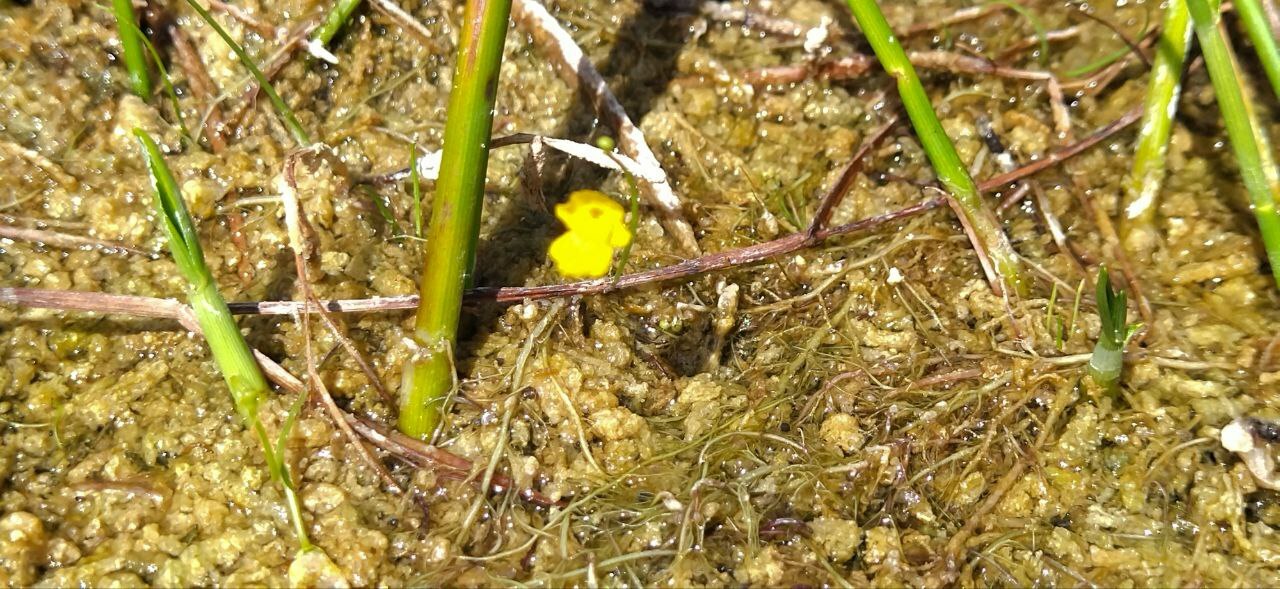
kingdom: Plantae
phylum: Tracheophyta
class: Magnoliopsida
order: Lamiales
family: Lentibulariaceae
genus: Utricularia
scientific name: Utricularia gibba
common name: Humped bladderwort
